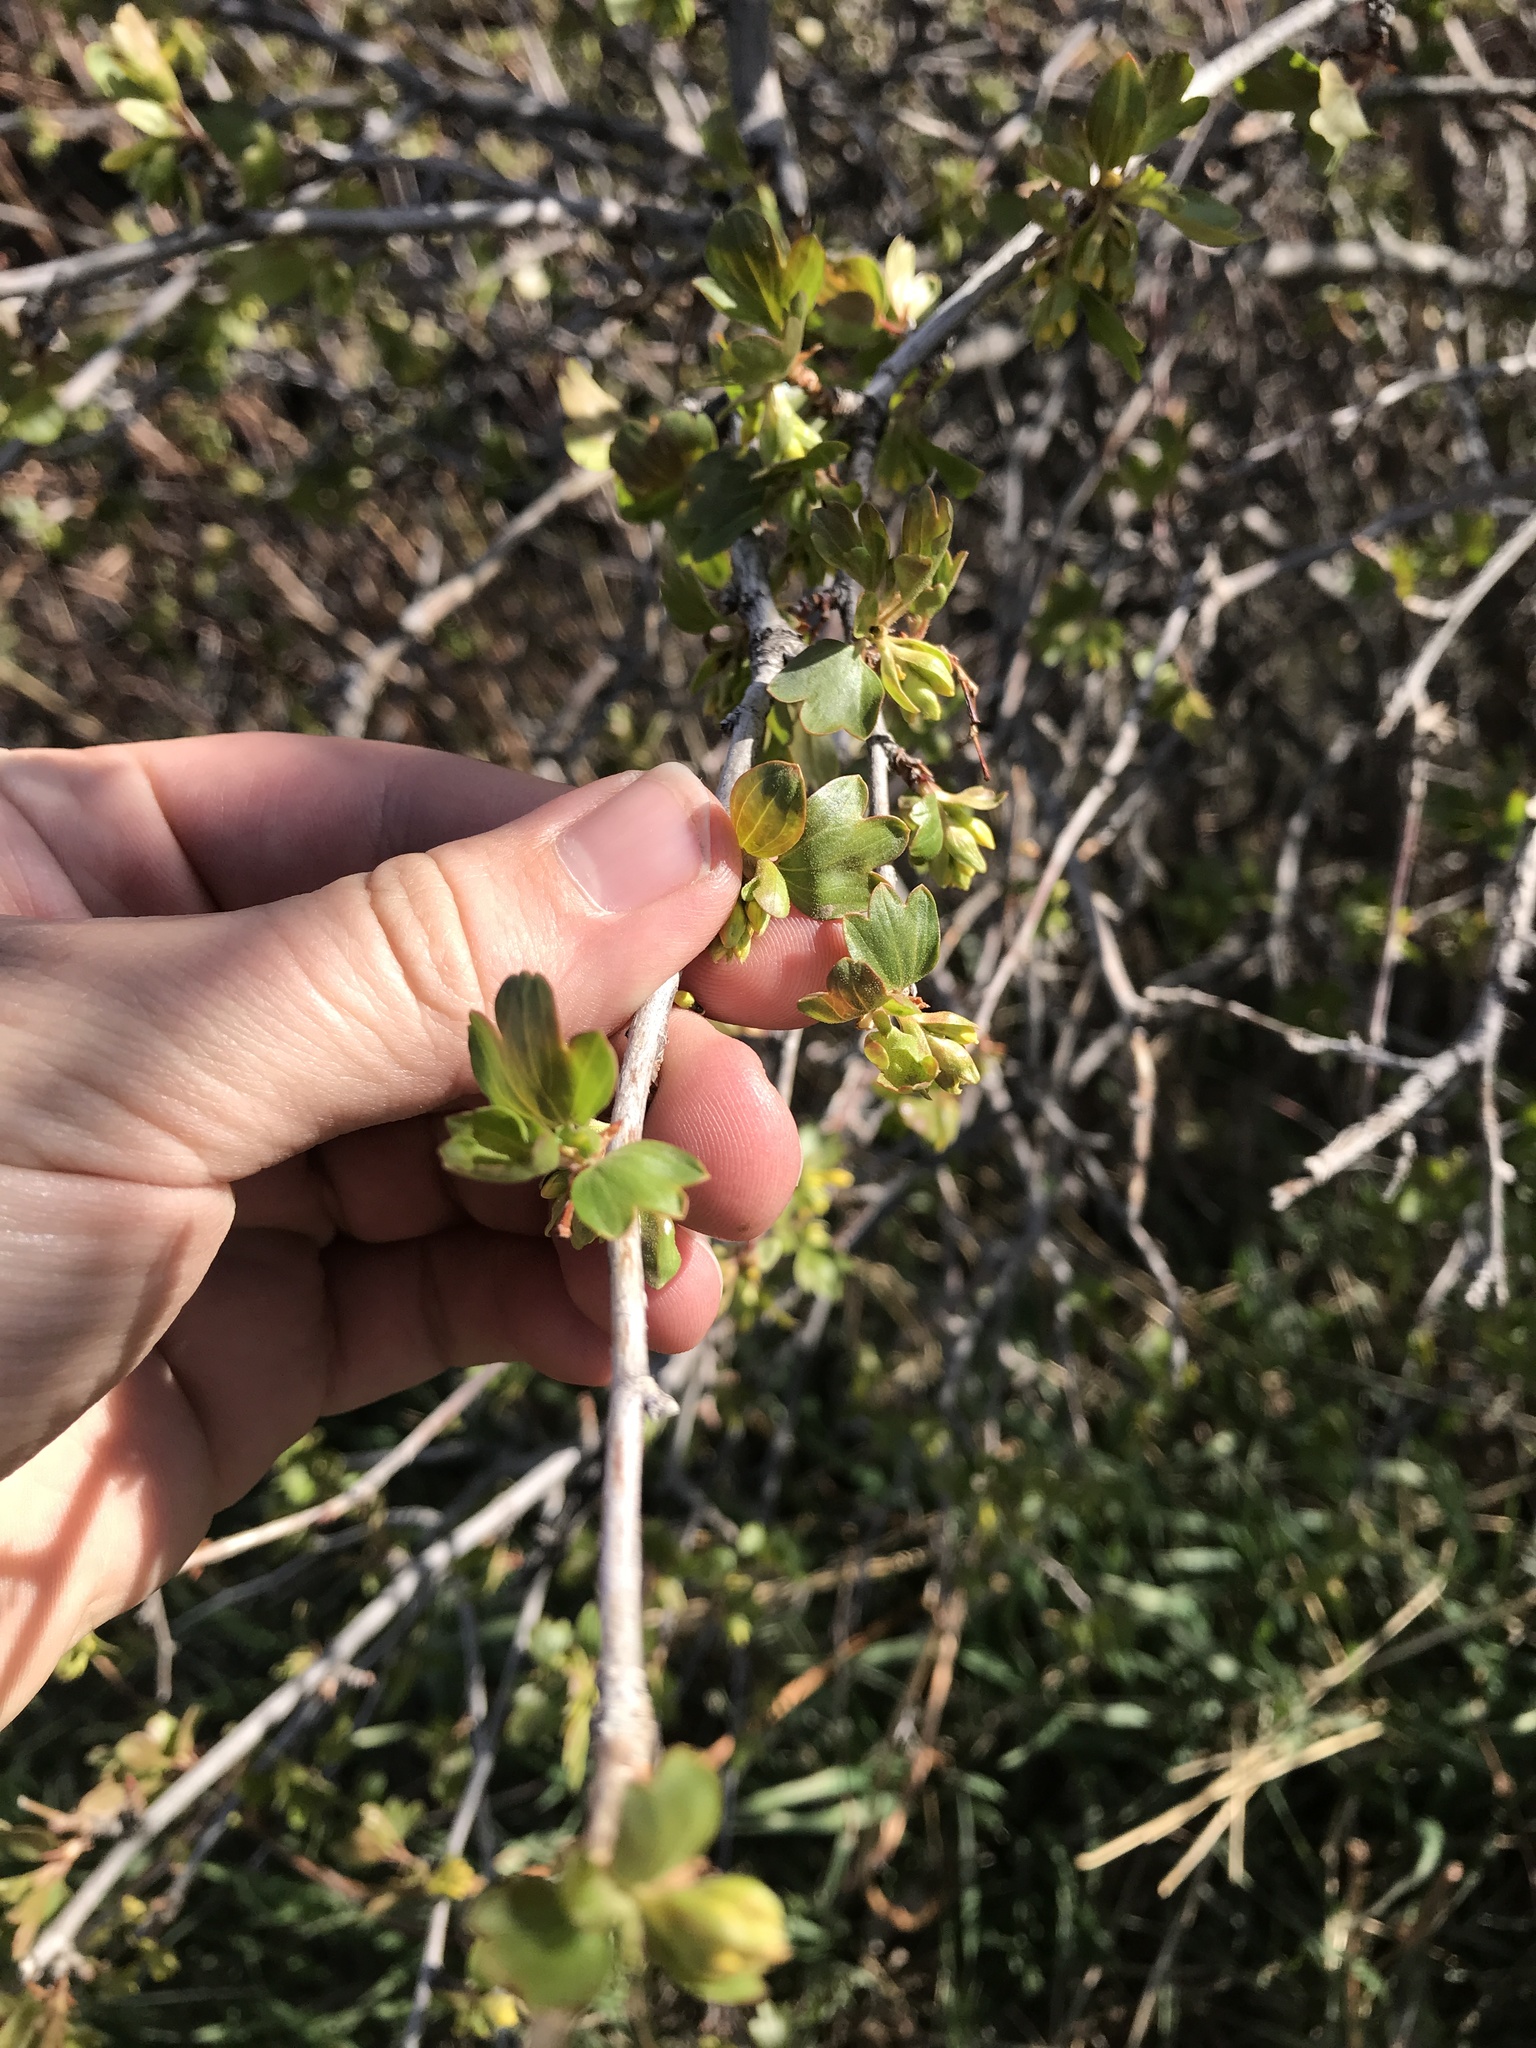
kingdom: Plantae
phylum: Tracheophyta
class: Magnoliopsida
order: Saxifragales
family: Grossulariaceae
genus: Ribes
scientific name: Ribes aureum
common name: Golden currant
